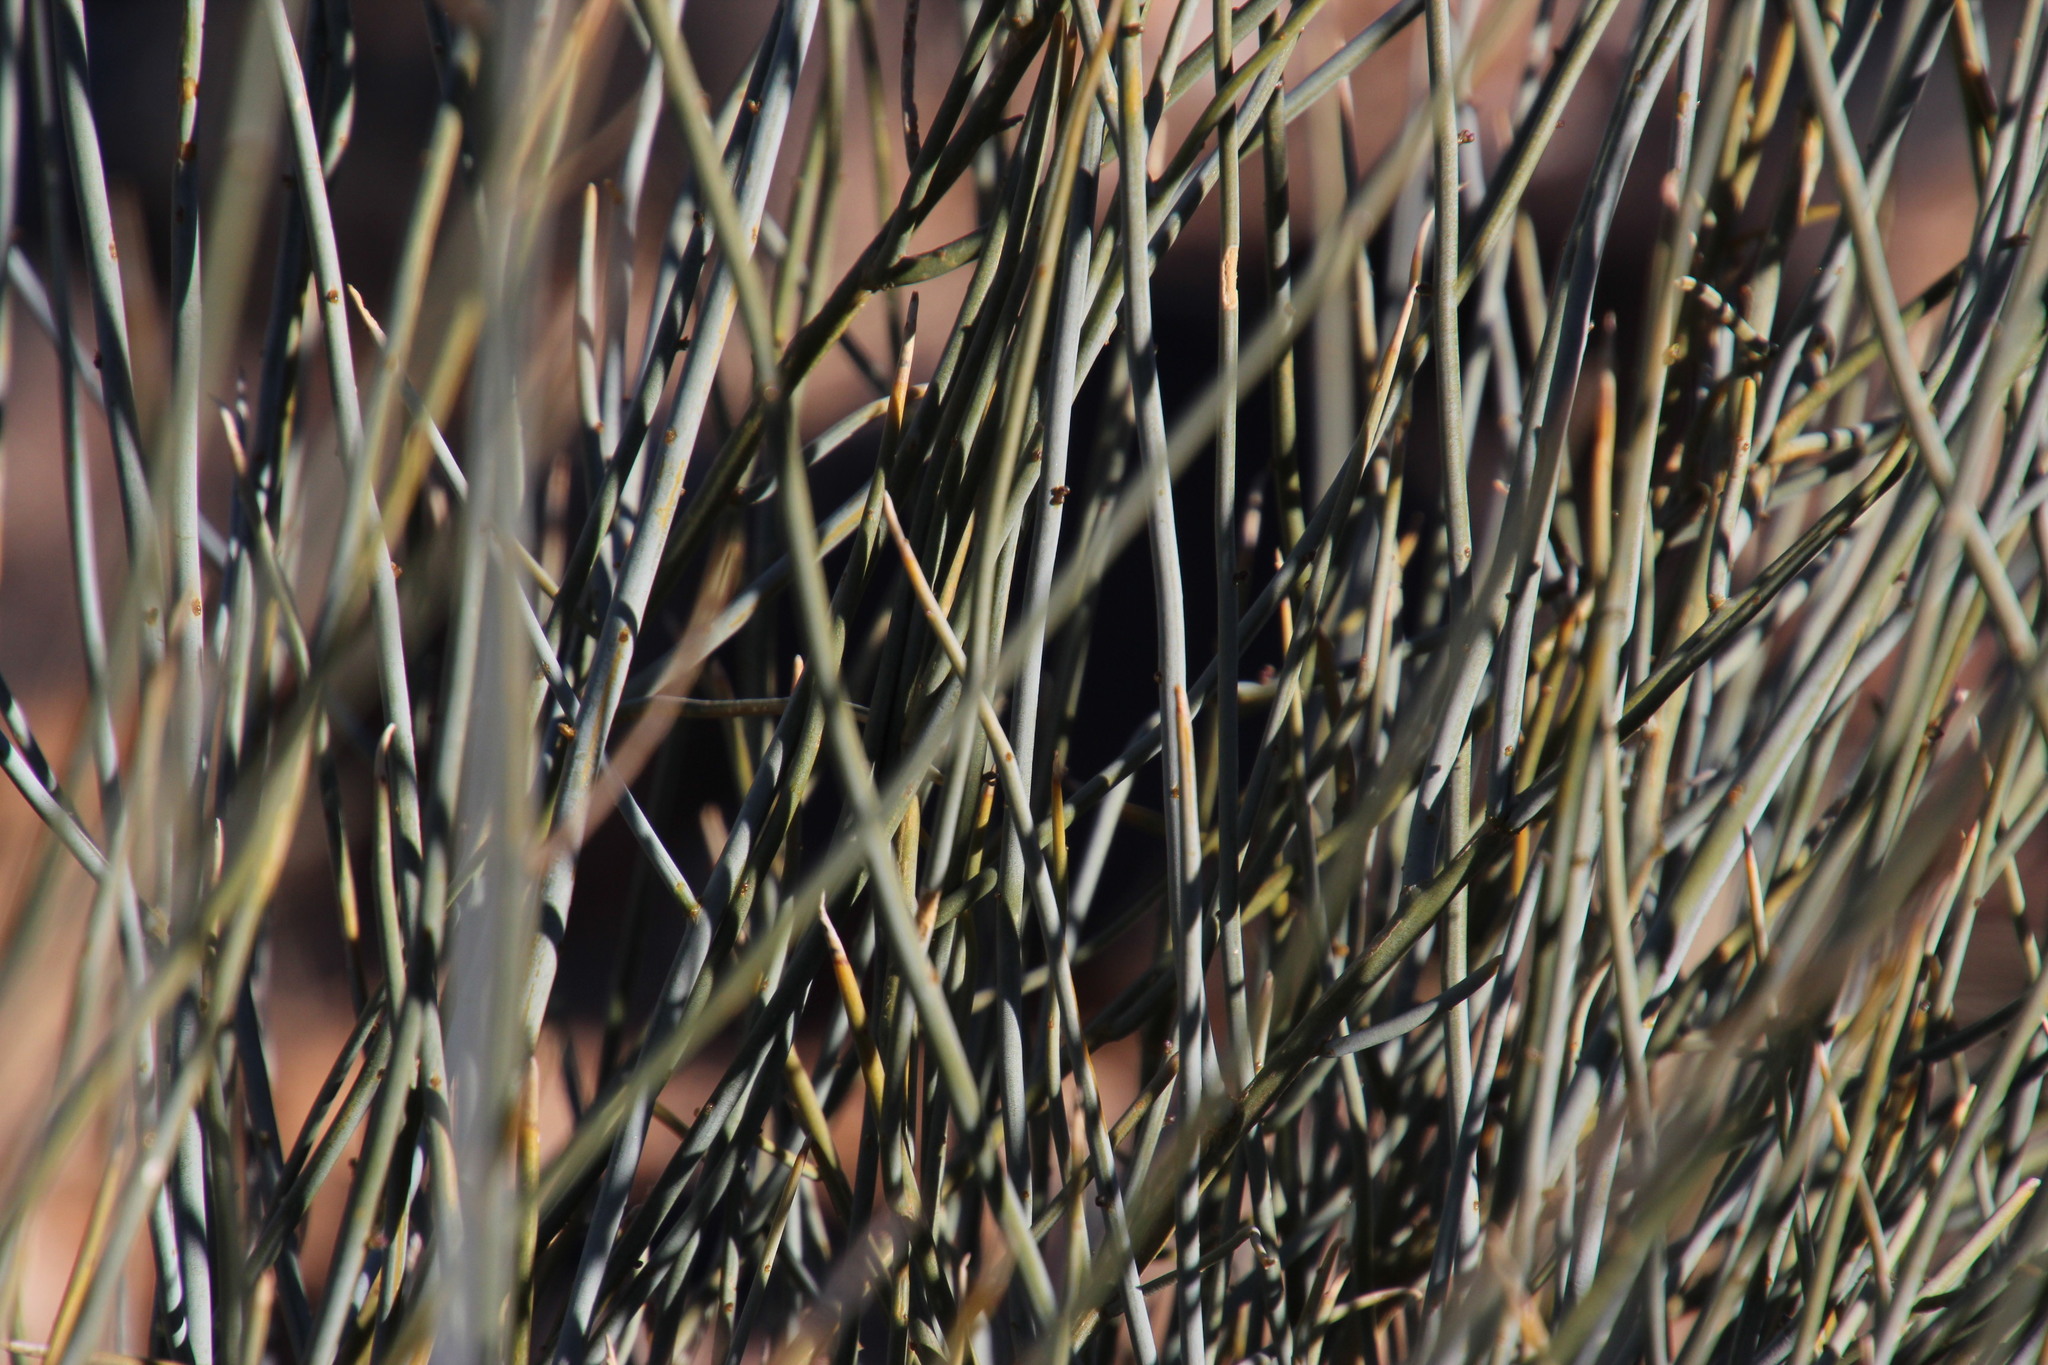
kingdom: Plantae
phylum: Tracheophyta
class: Magnoliopsida
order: Brassicales
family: Capparaceae
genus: Cadaba
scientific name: Cadaba aphylla
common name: Black storm
